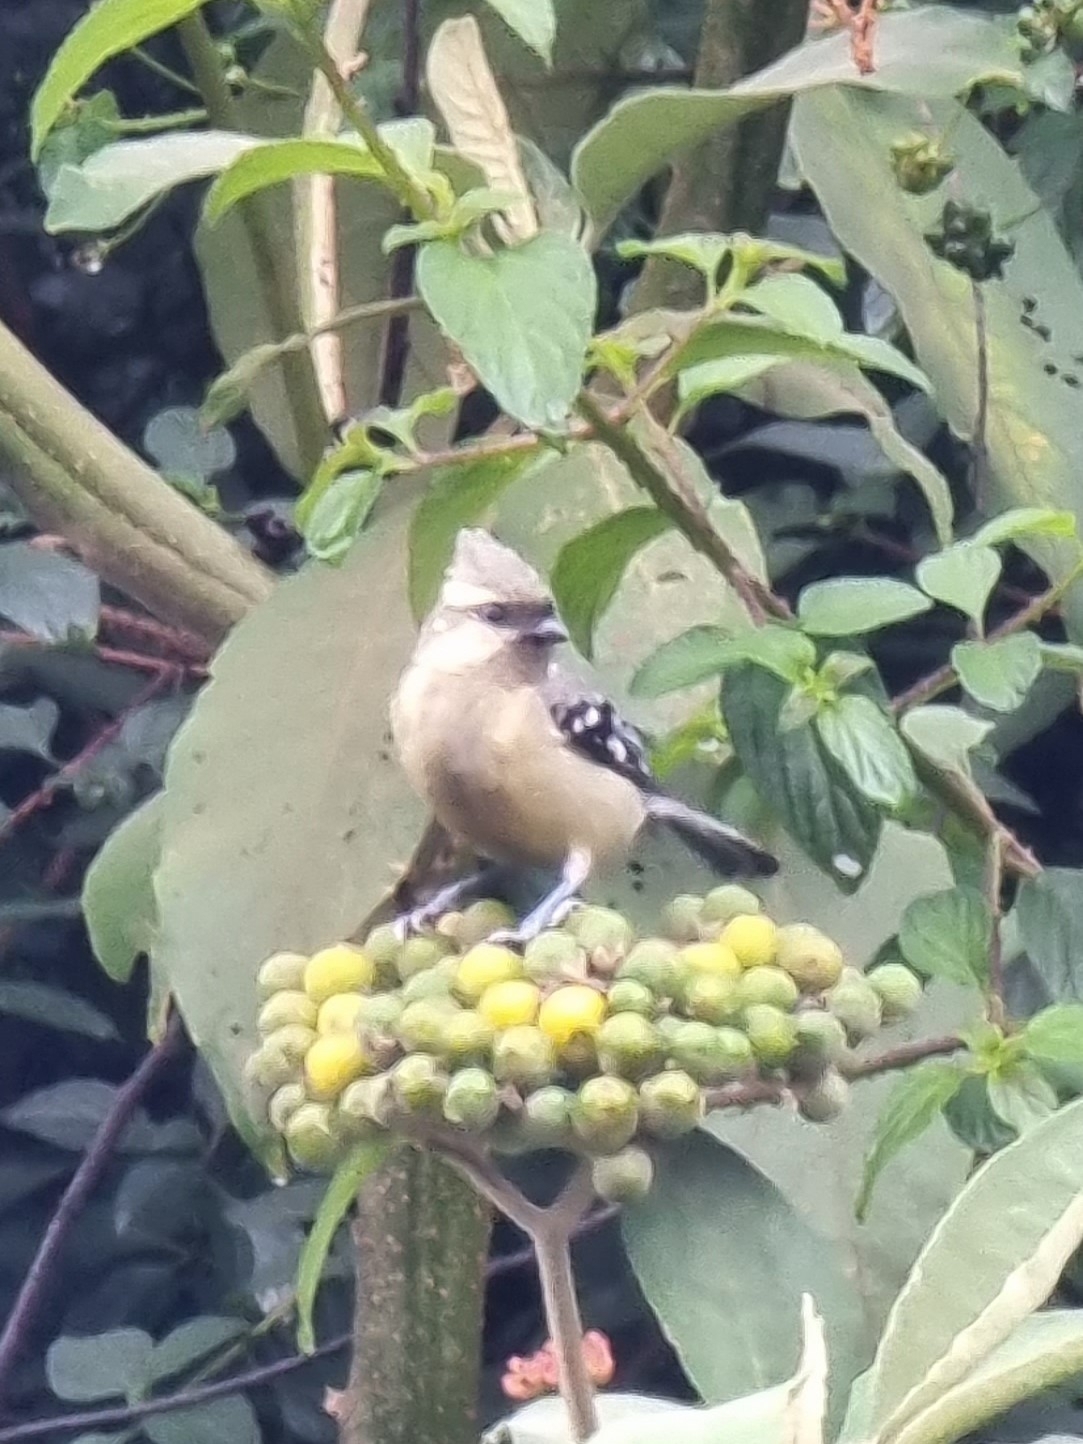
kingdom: Animalia
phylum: Chordata
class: Aves
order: Passeriformes
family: Paridae
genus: Parus
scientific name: Parus aplonotus
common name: Indian black-lored tit
